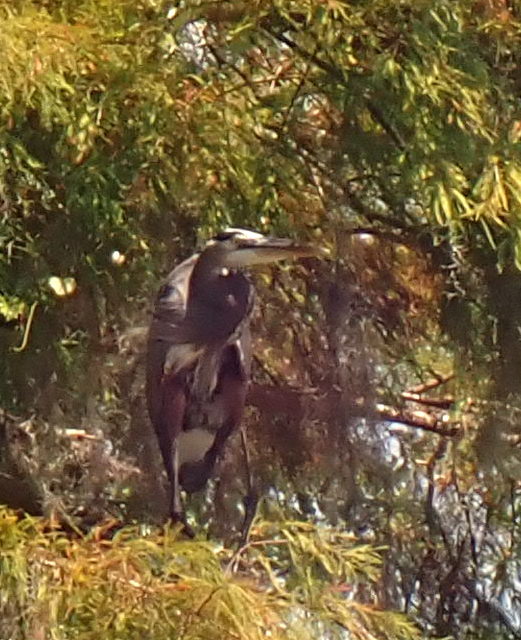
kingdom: Animalia
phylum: Chordata
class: Aves
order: Pelecaniformes
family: Ardeidae
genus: Ardea
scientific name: Ardea herodias
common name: Great blue heron
